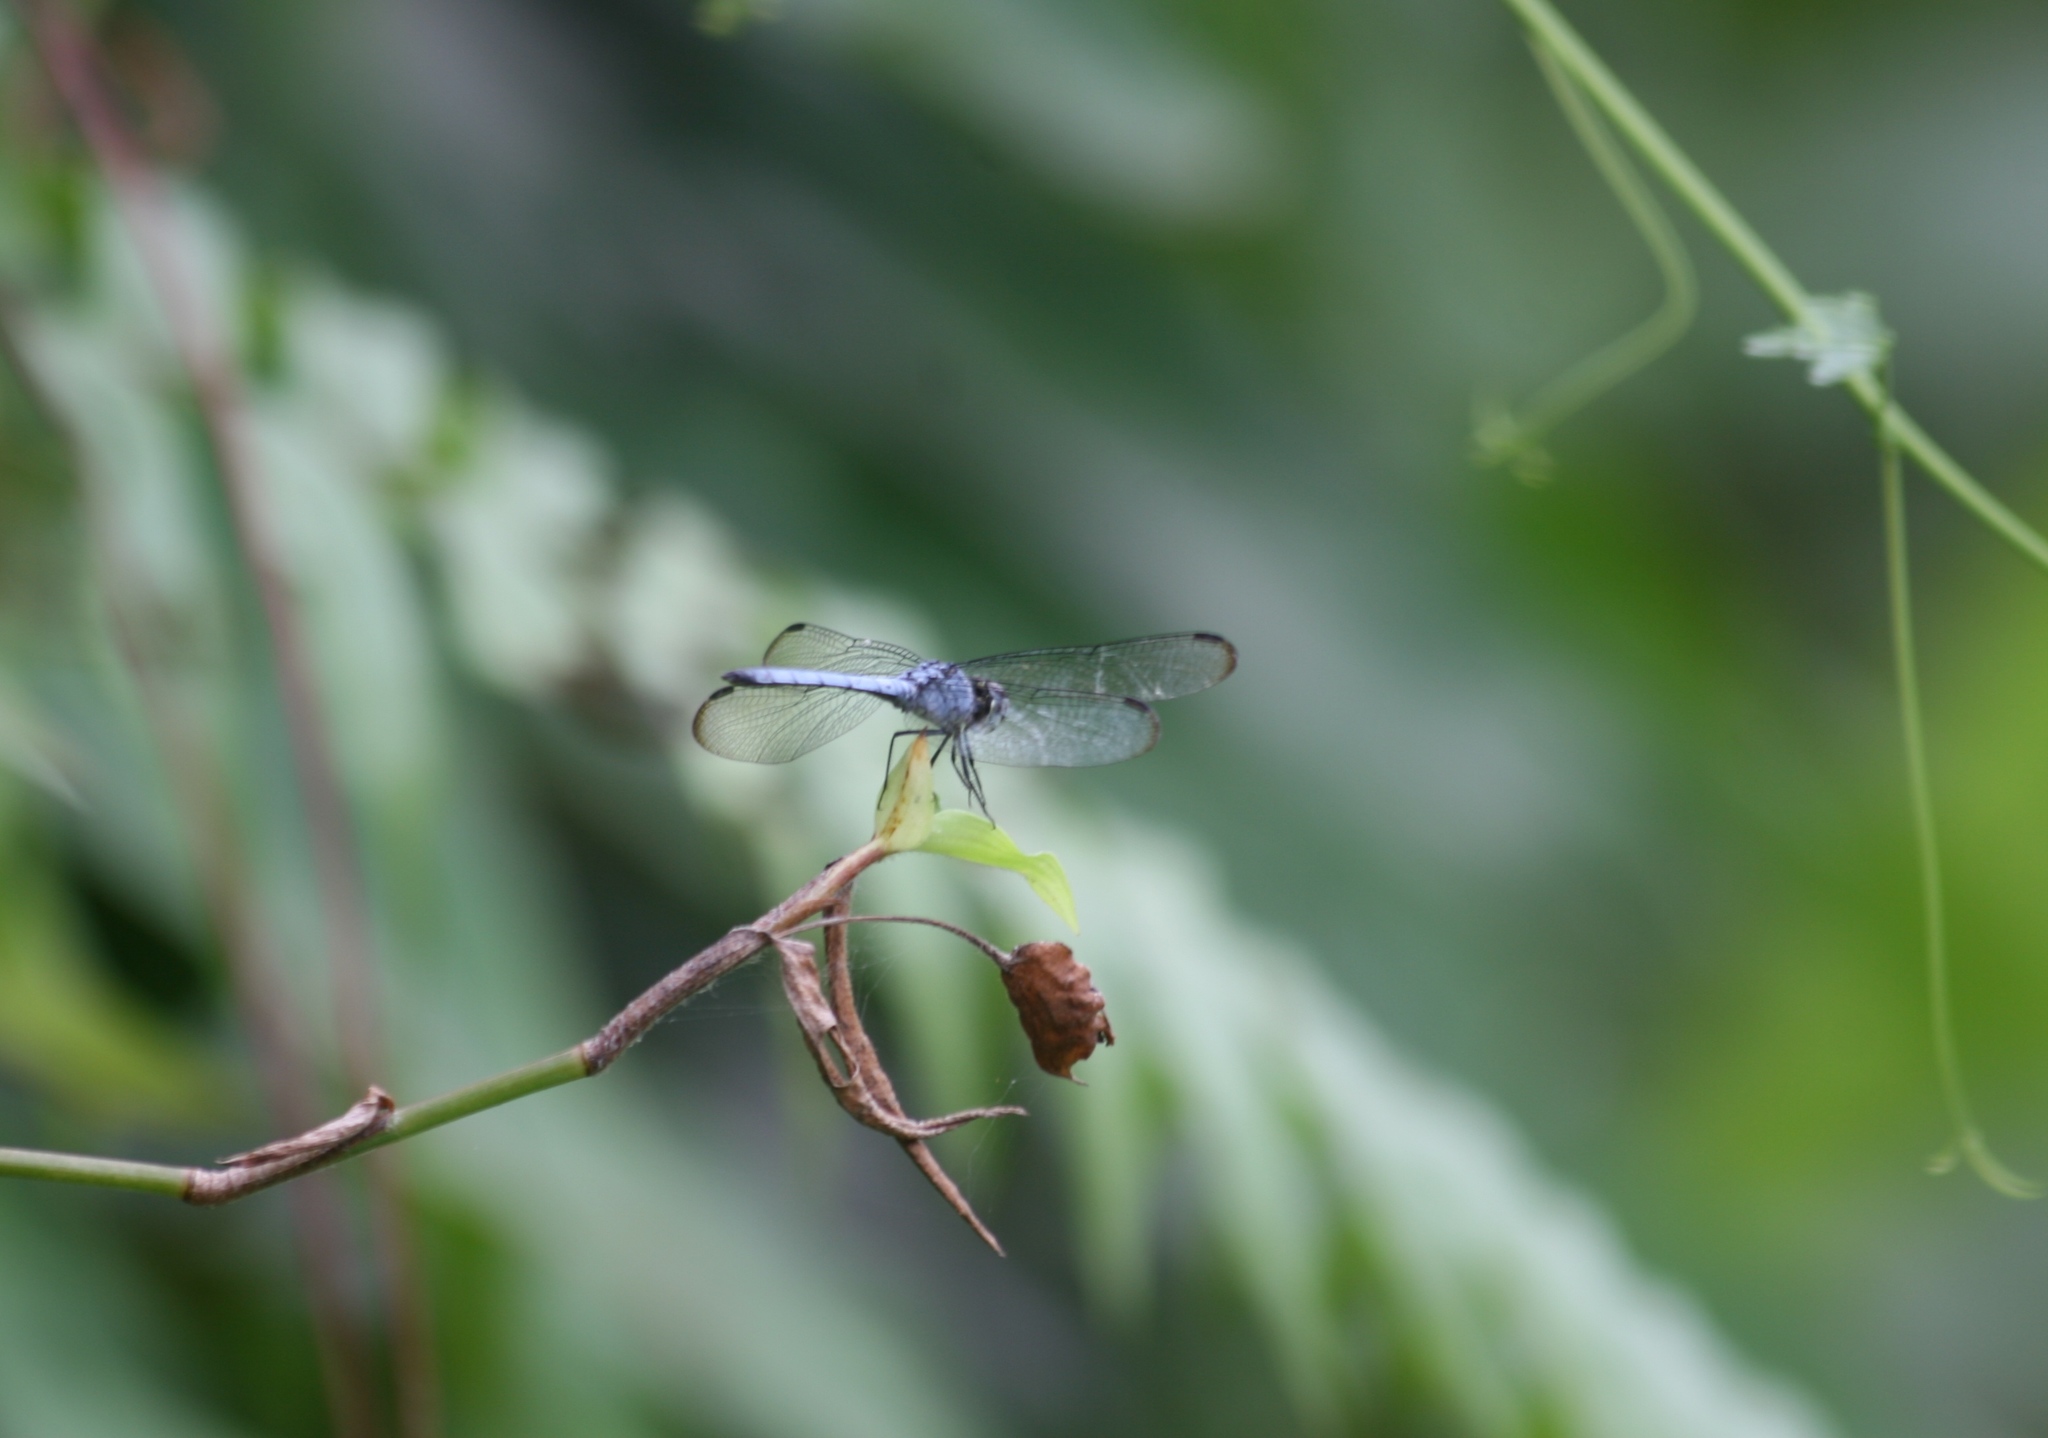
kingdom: Animalia
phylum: Arthropoda
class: Insecta
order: Odonata
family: Libellulidae
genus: Chalcostephia
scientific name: Chalcostephia flavifrons
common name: Inspector
